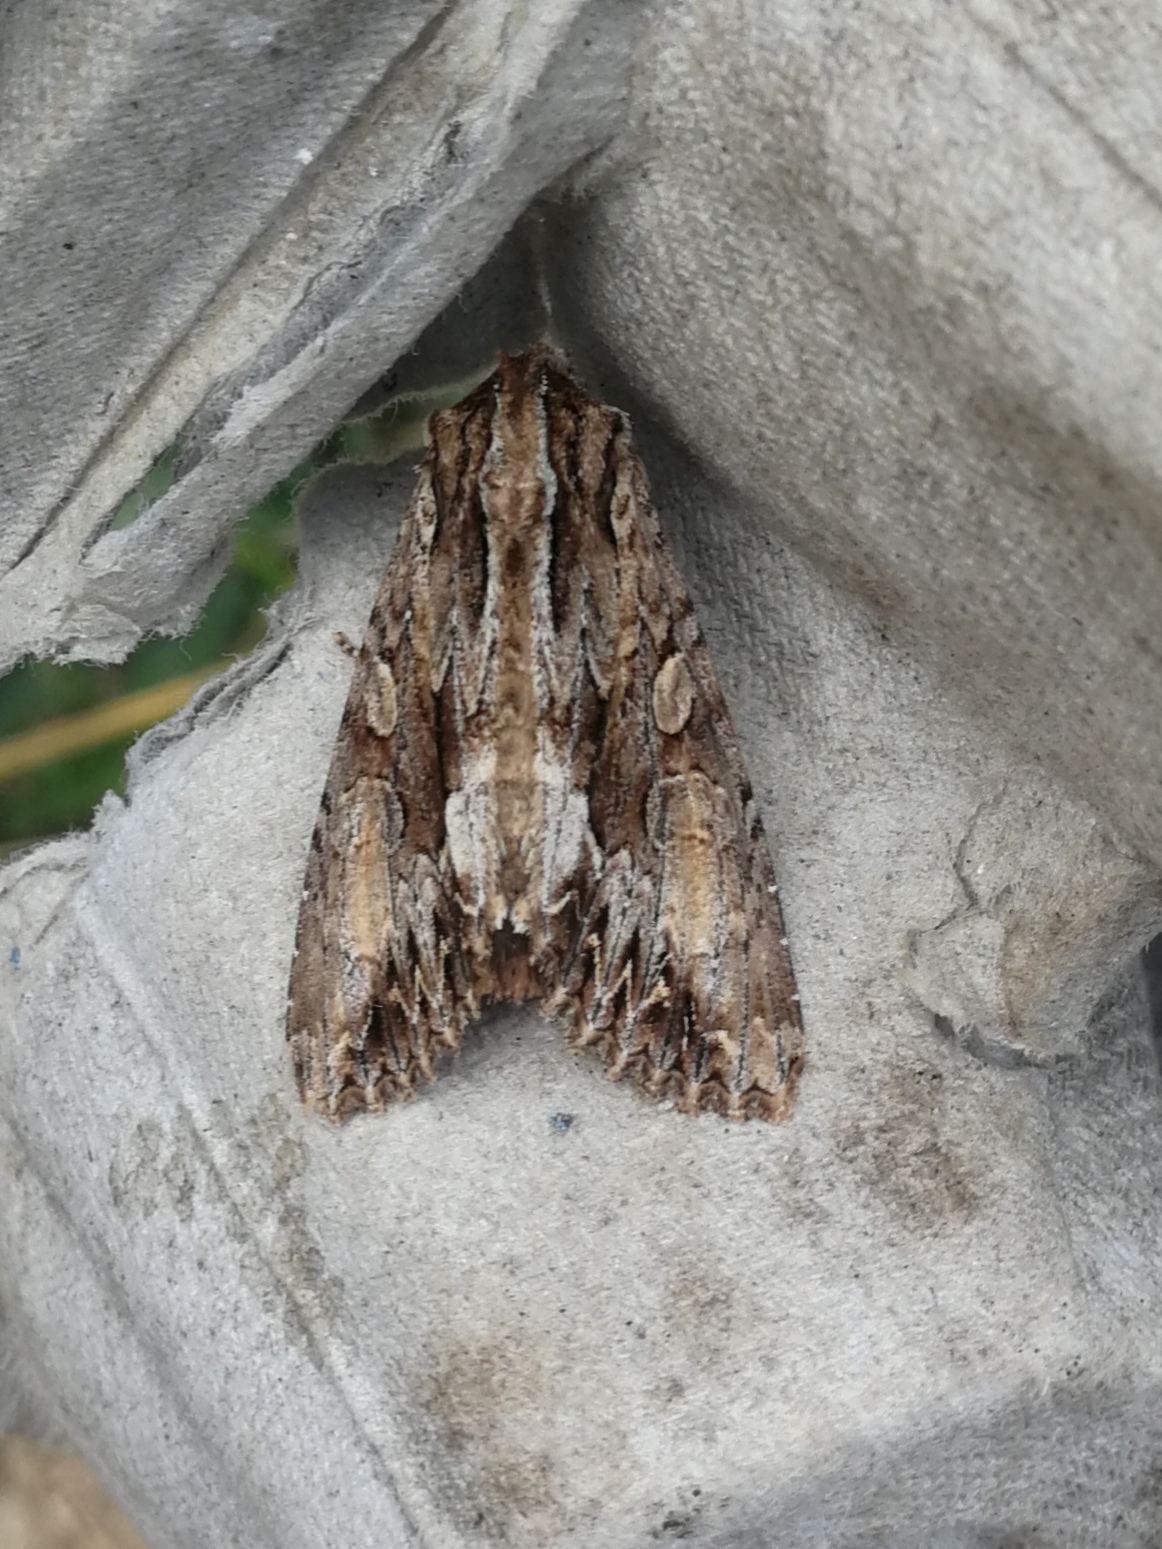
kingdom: Animalia
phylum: Arthropoda
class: Insecta
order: Lepidoptera
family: Noctuidae
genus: Apamea
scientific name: Apamea monoglypha
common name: Dark arches
